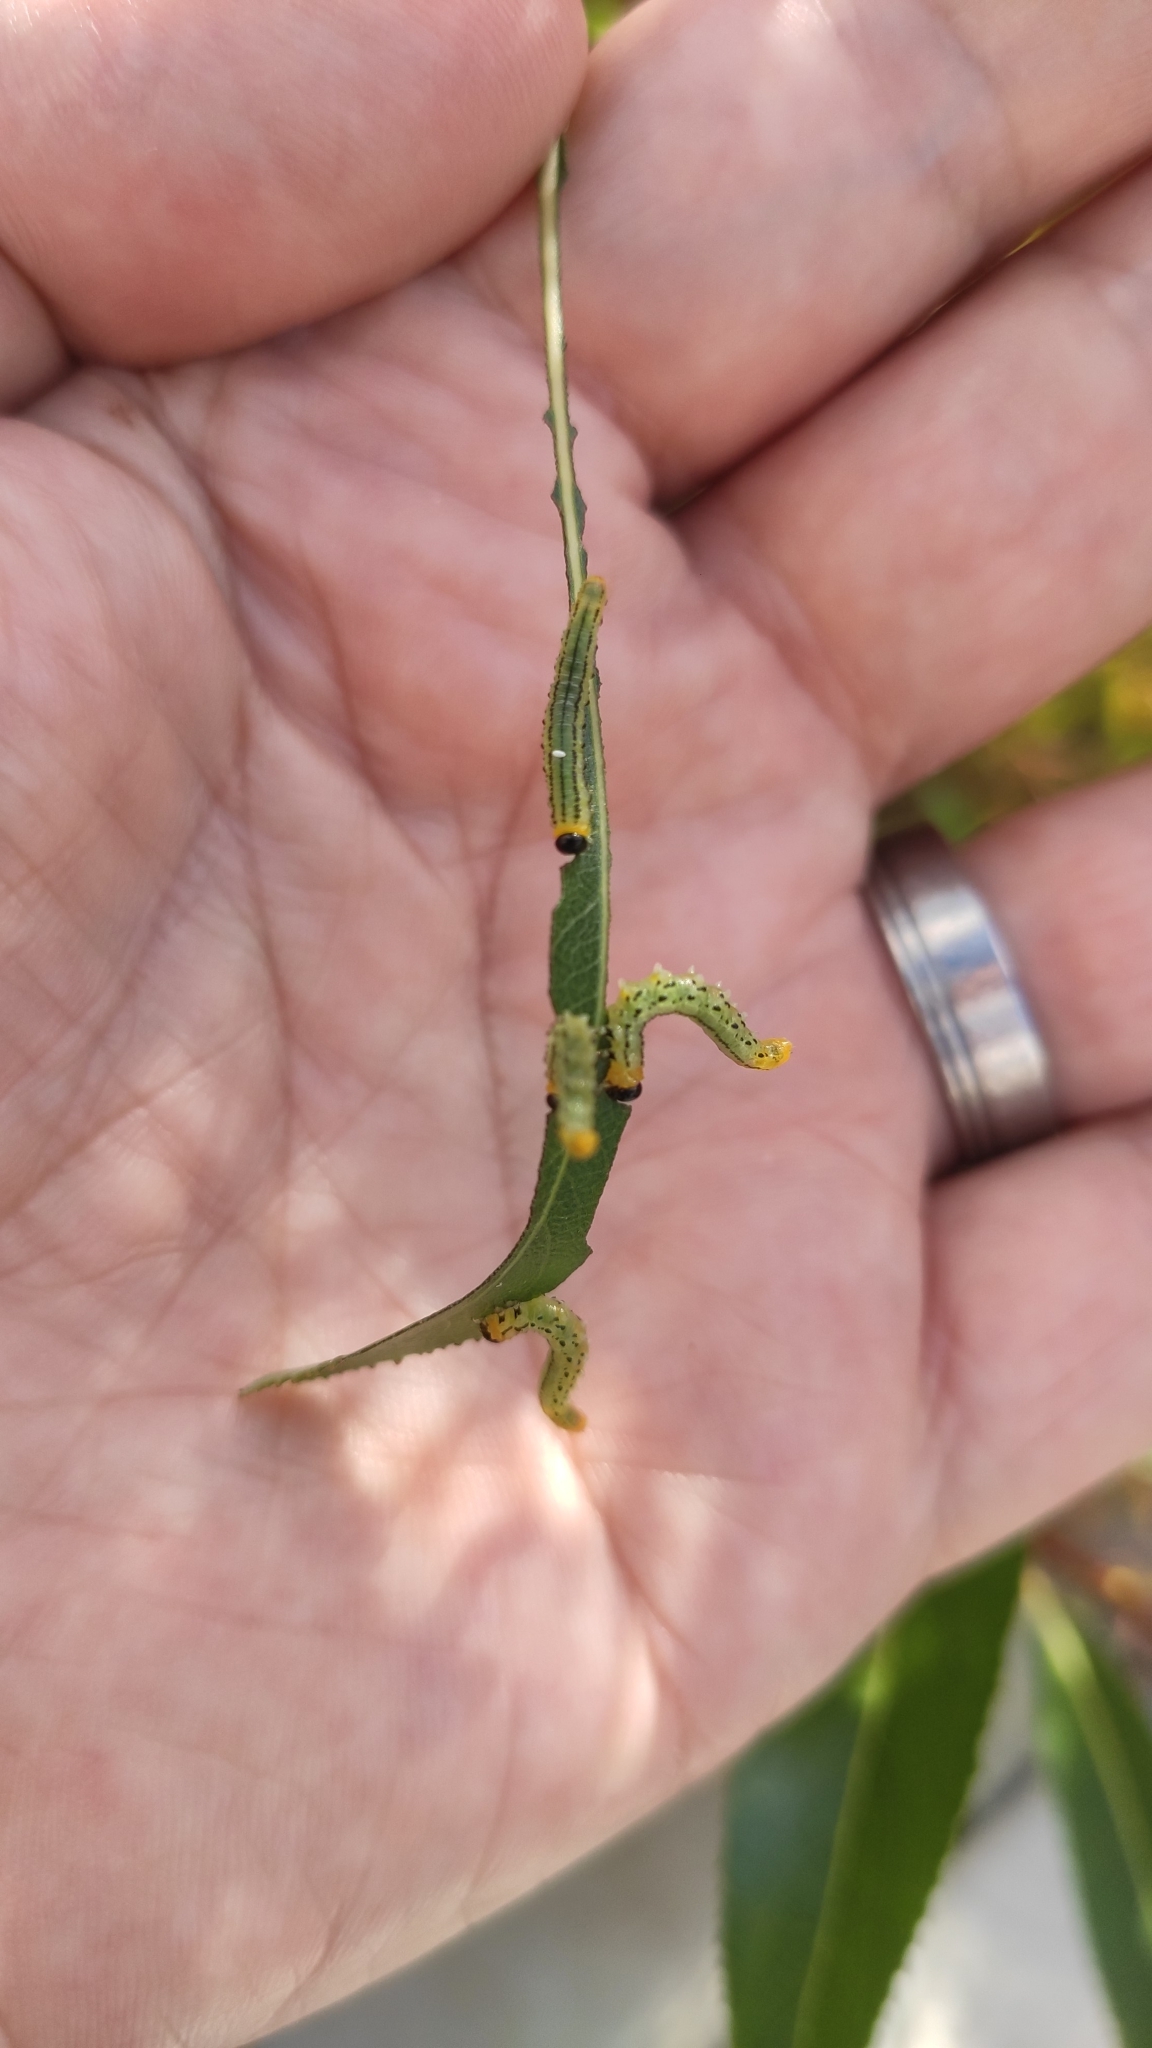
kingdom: Animalia
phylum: Arthropoda
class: Insecta
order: Hymenoptera
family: Tenthredinidae
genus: Nematus
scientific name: Nematus pavidus
